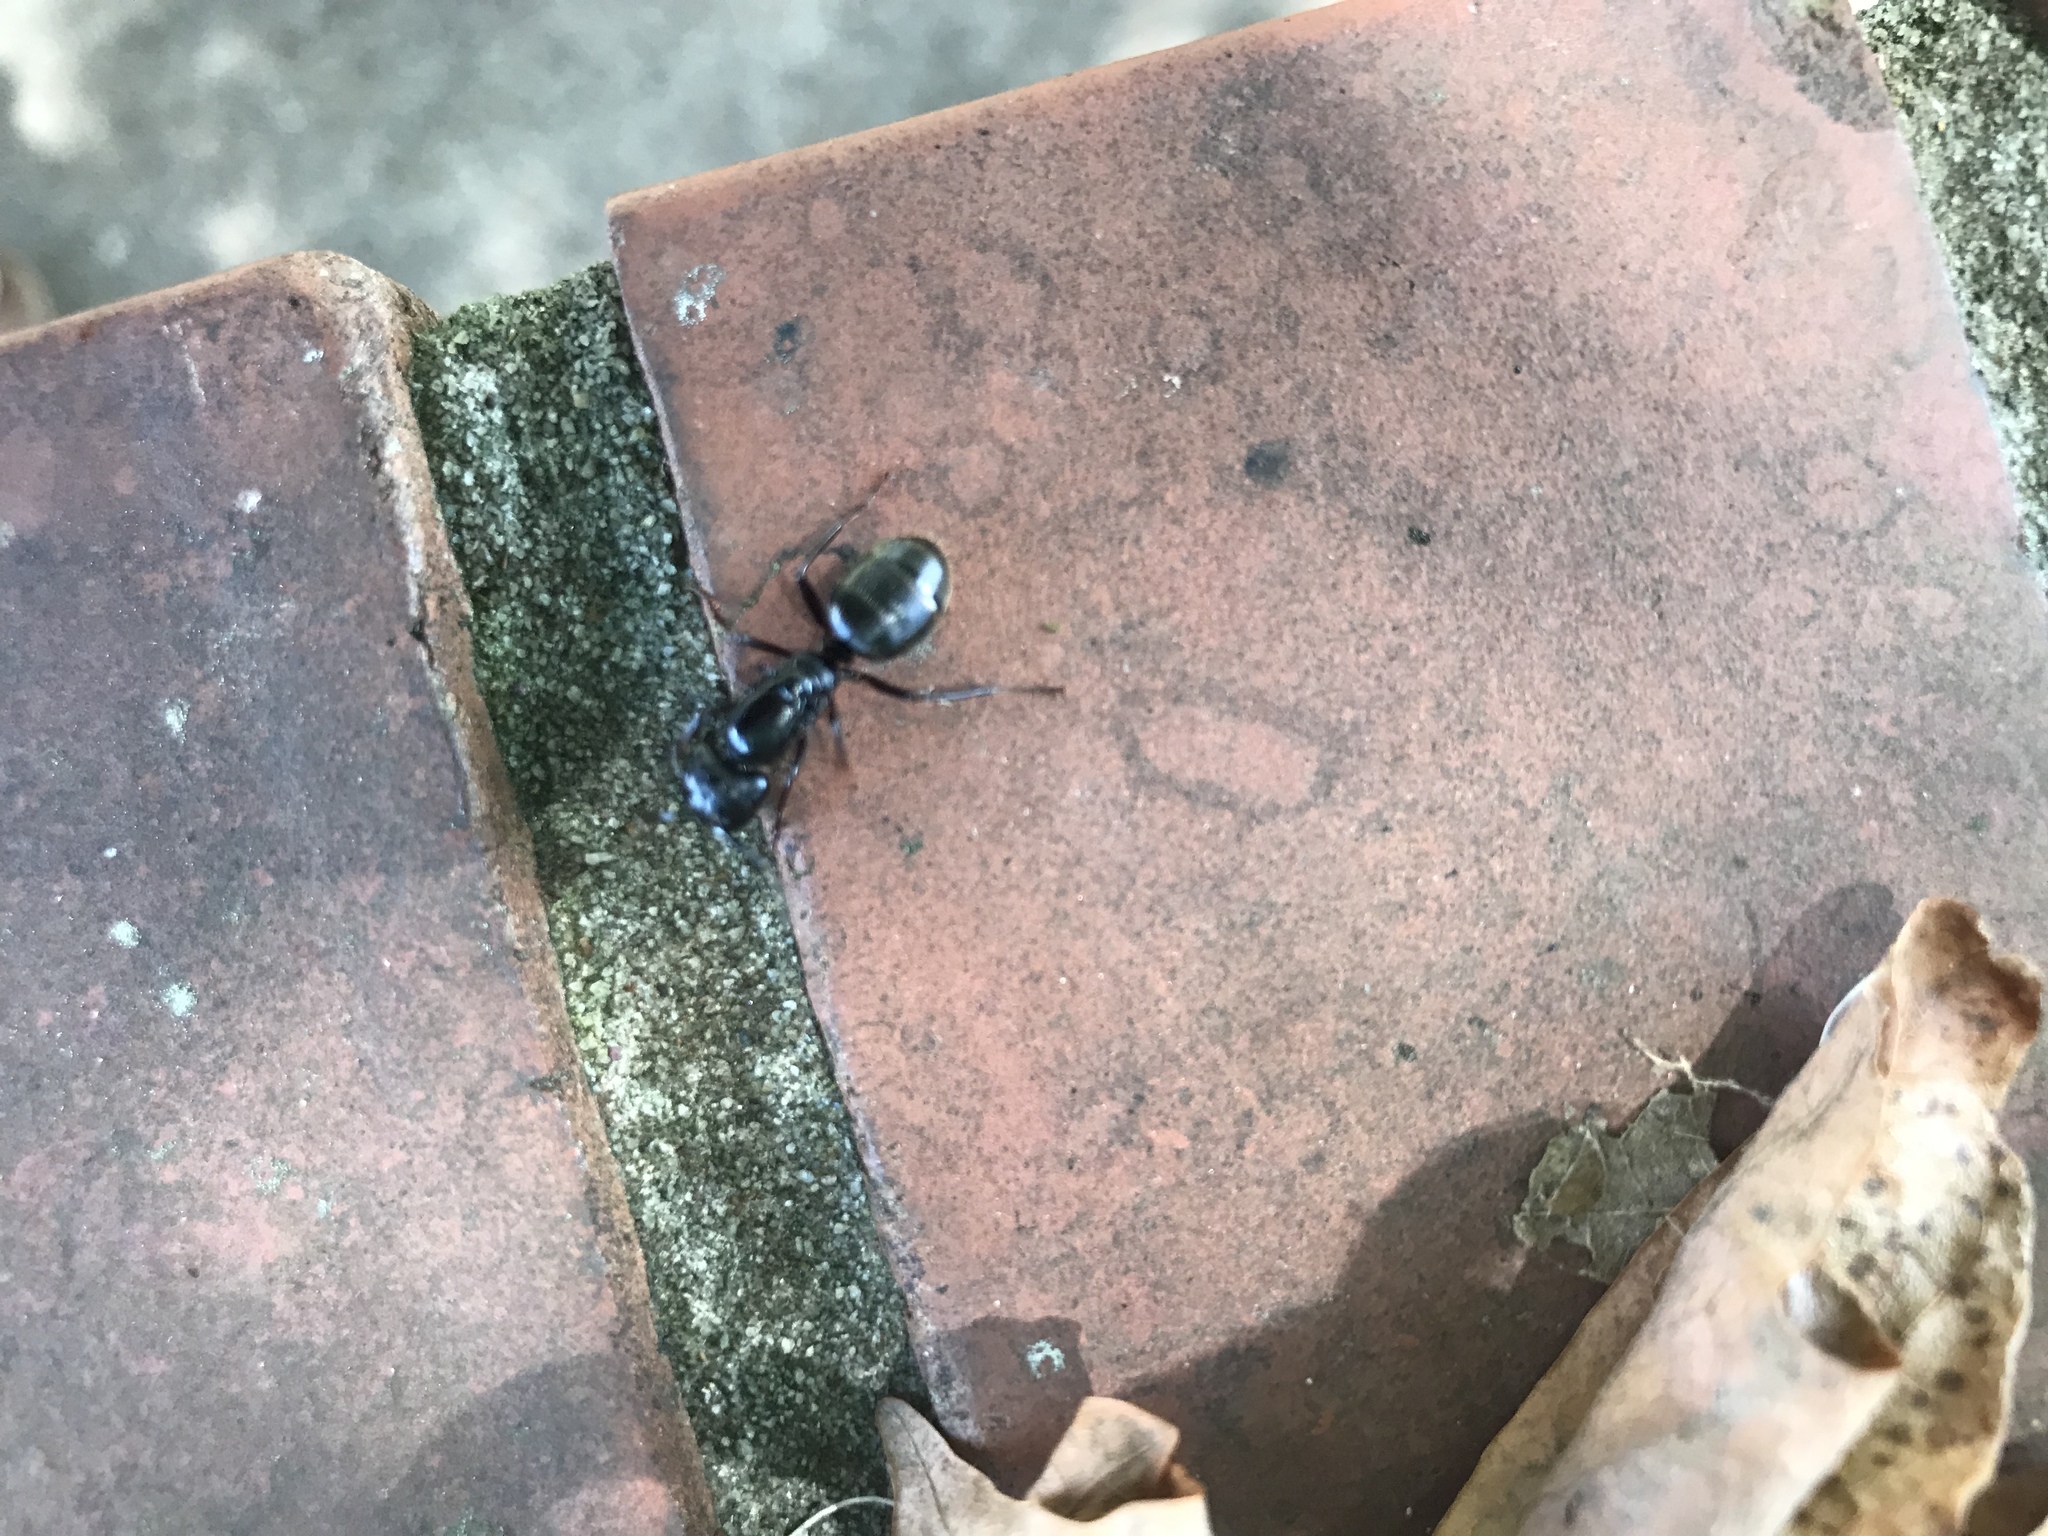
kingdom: Animalia
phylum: Arthropoda
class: Insecta
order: Hymenoptera
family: Formicidae
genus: Camponotus
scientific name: Camponotus pennsylvanicus
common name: Black carpenter ant
